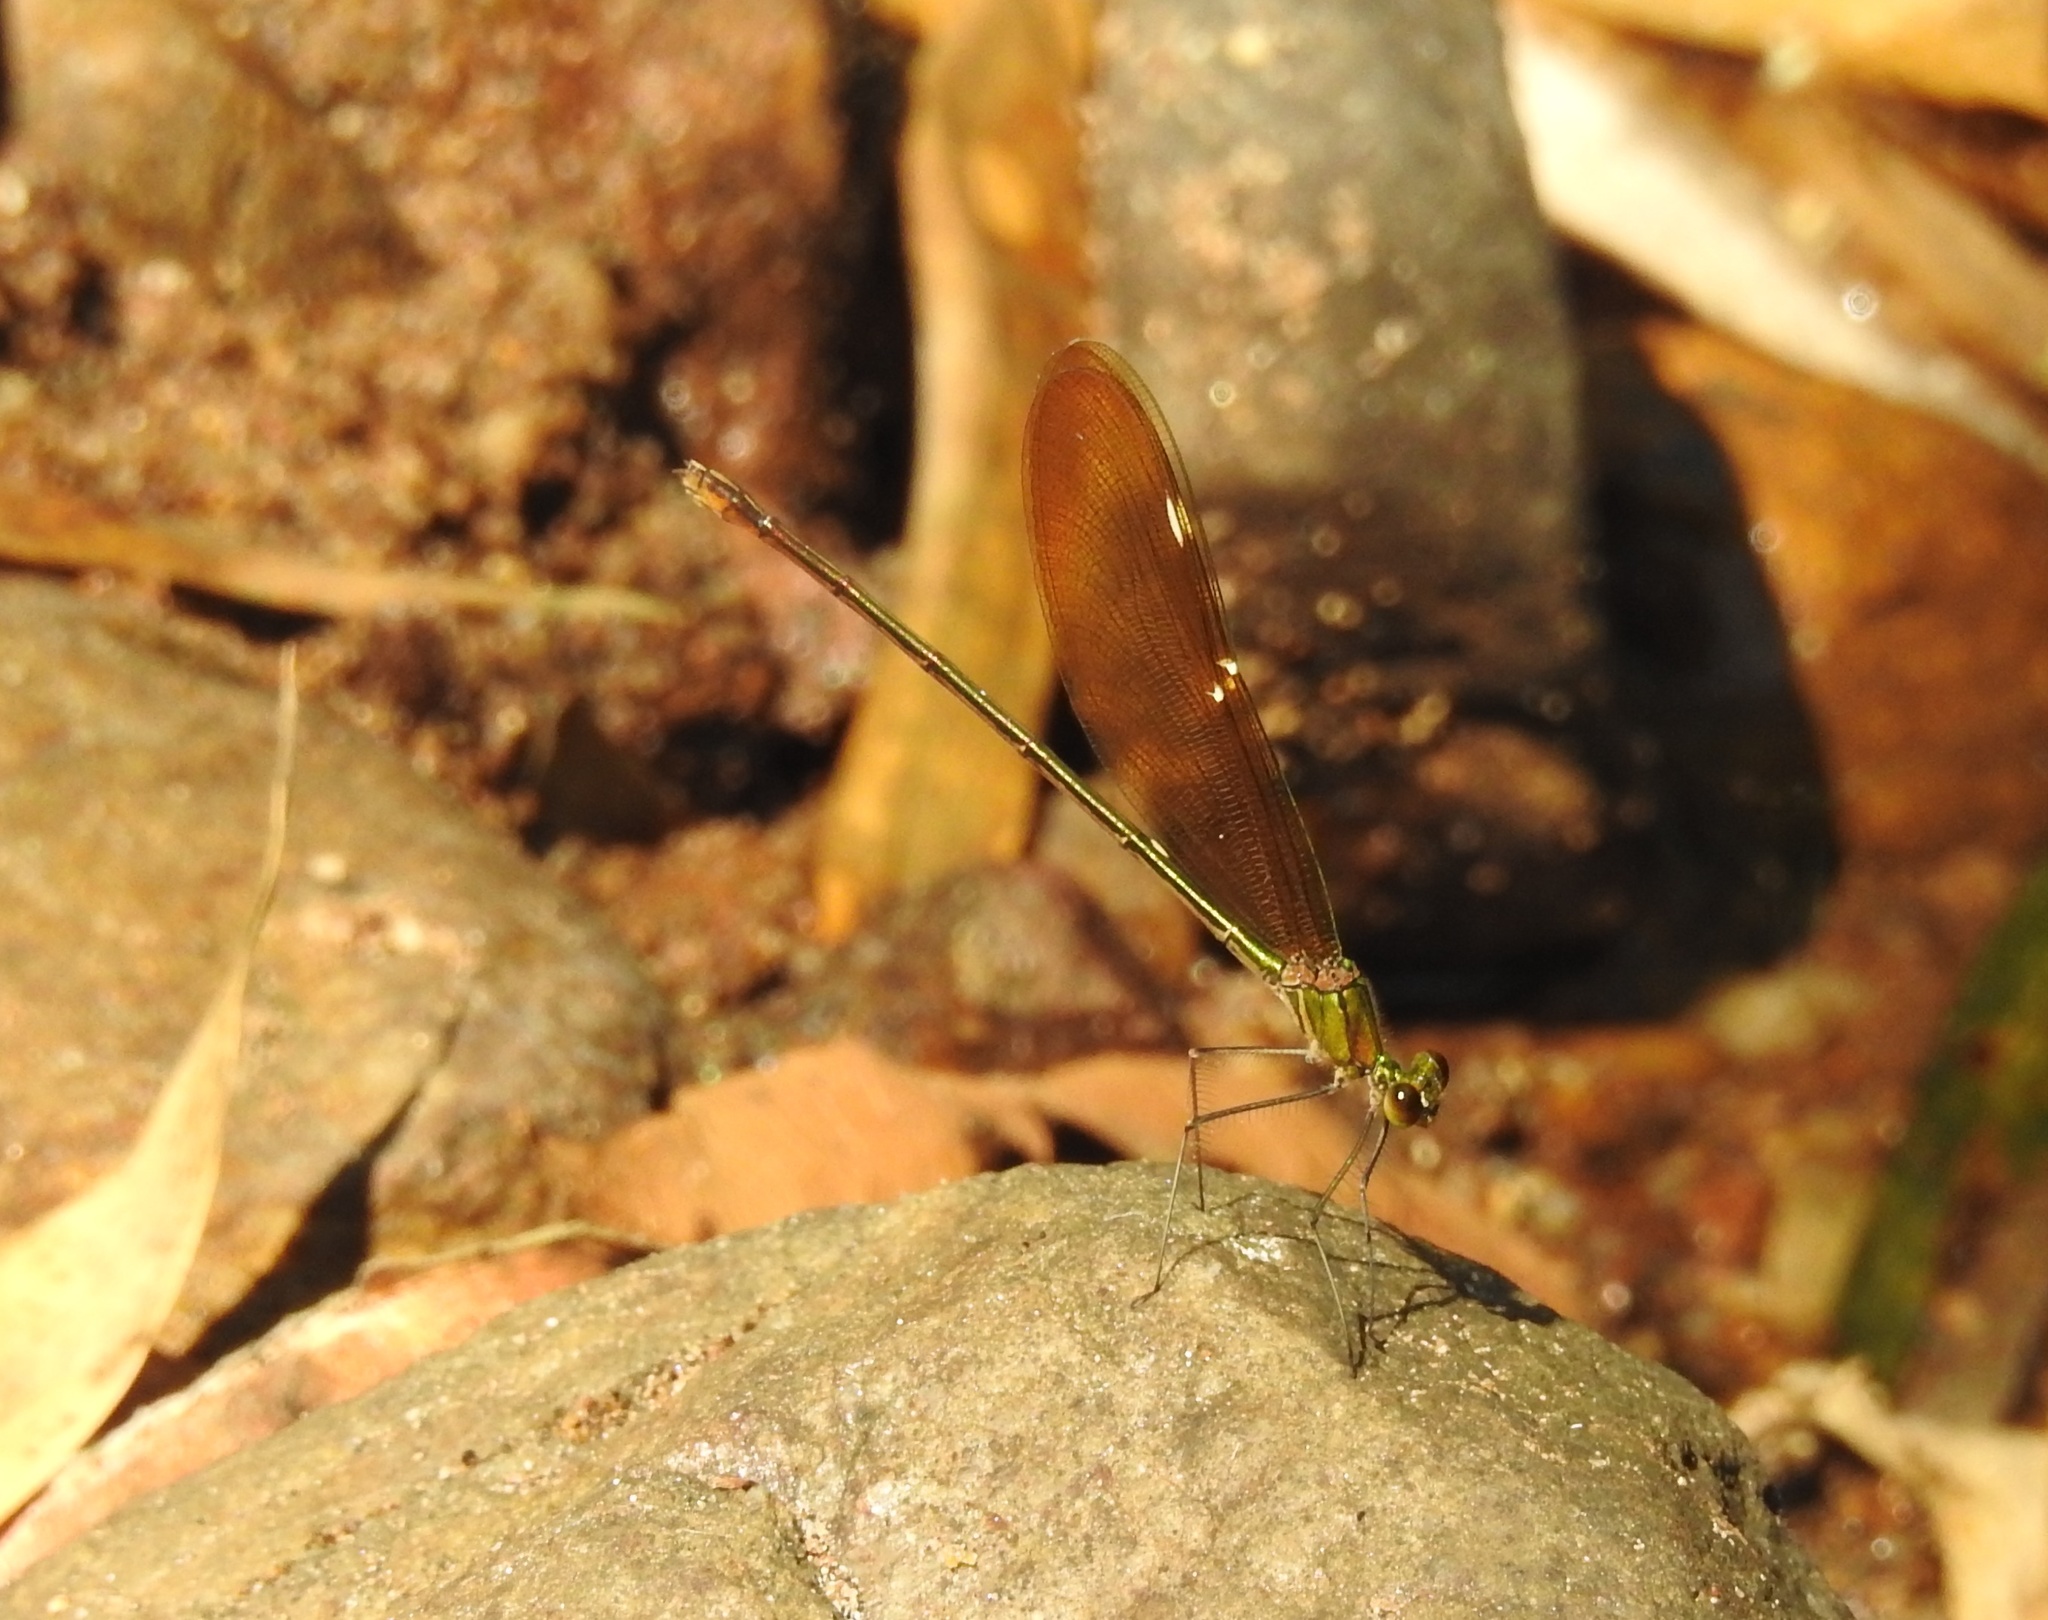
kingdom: Animalia
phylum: Arthropoda
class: Insecta
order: Odonata
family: Calopterygidae
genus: Neurobasis
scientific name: Neurobasis chinensis
